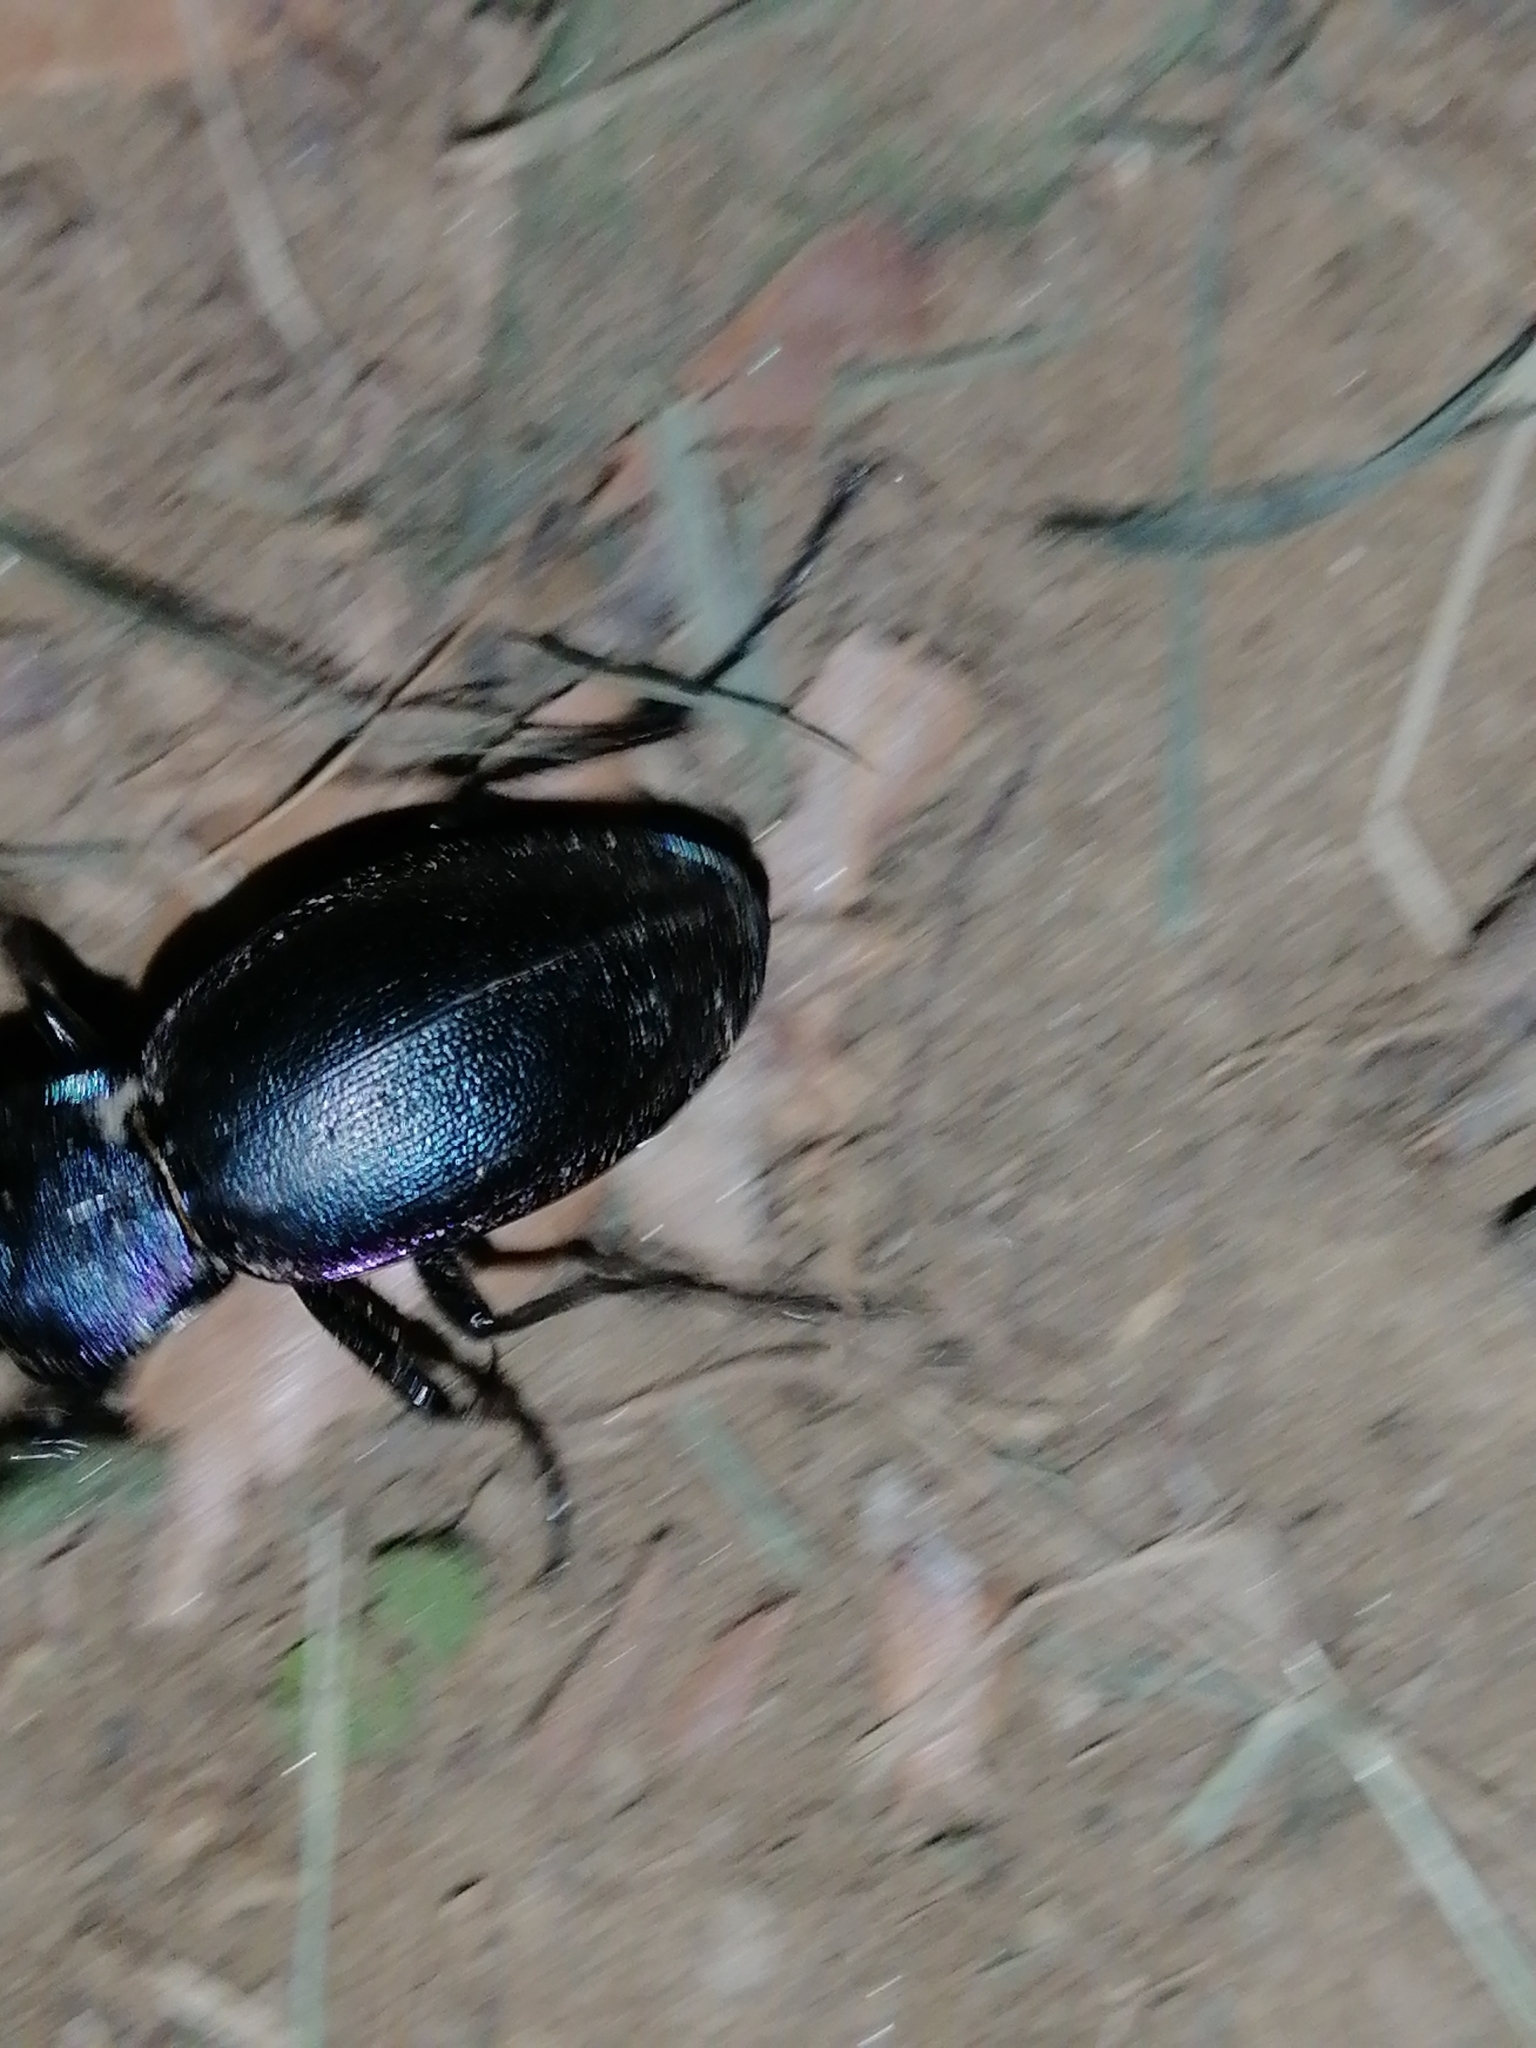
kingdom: Animalia
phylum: Arthropoda
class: Insecta
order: Coleoptera
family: Carabidae
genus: Carabus
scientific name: Carabus violaceus
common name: Violet ground beetle
